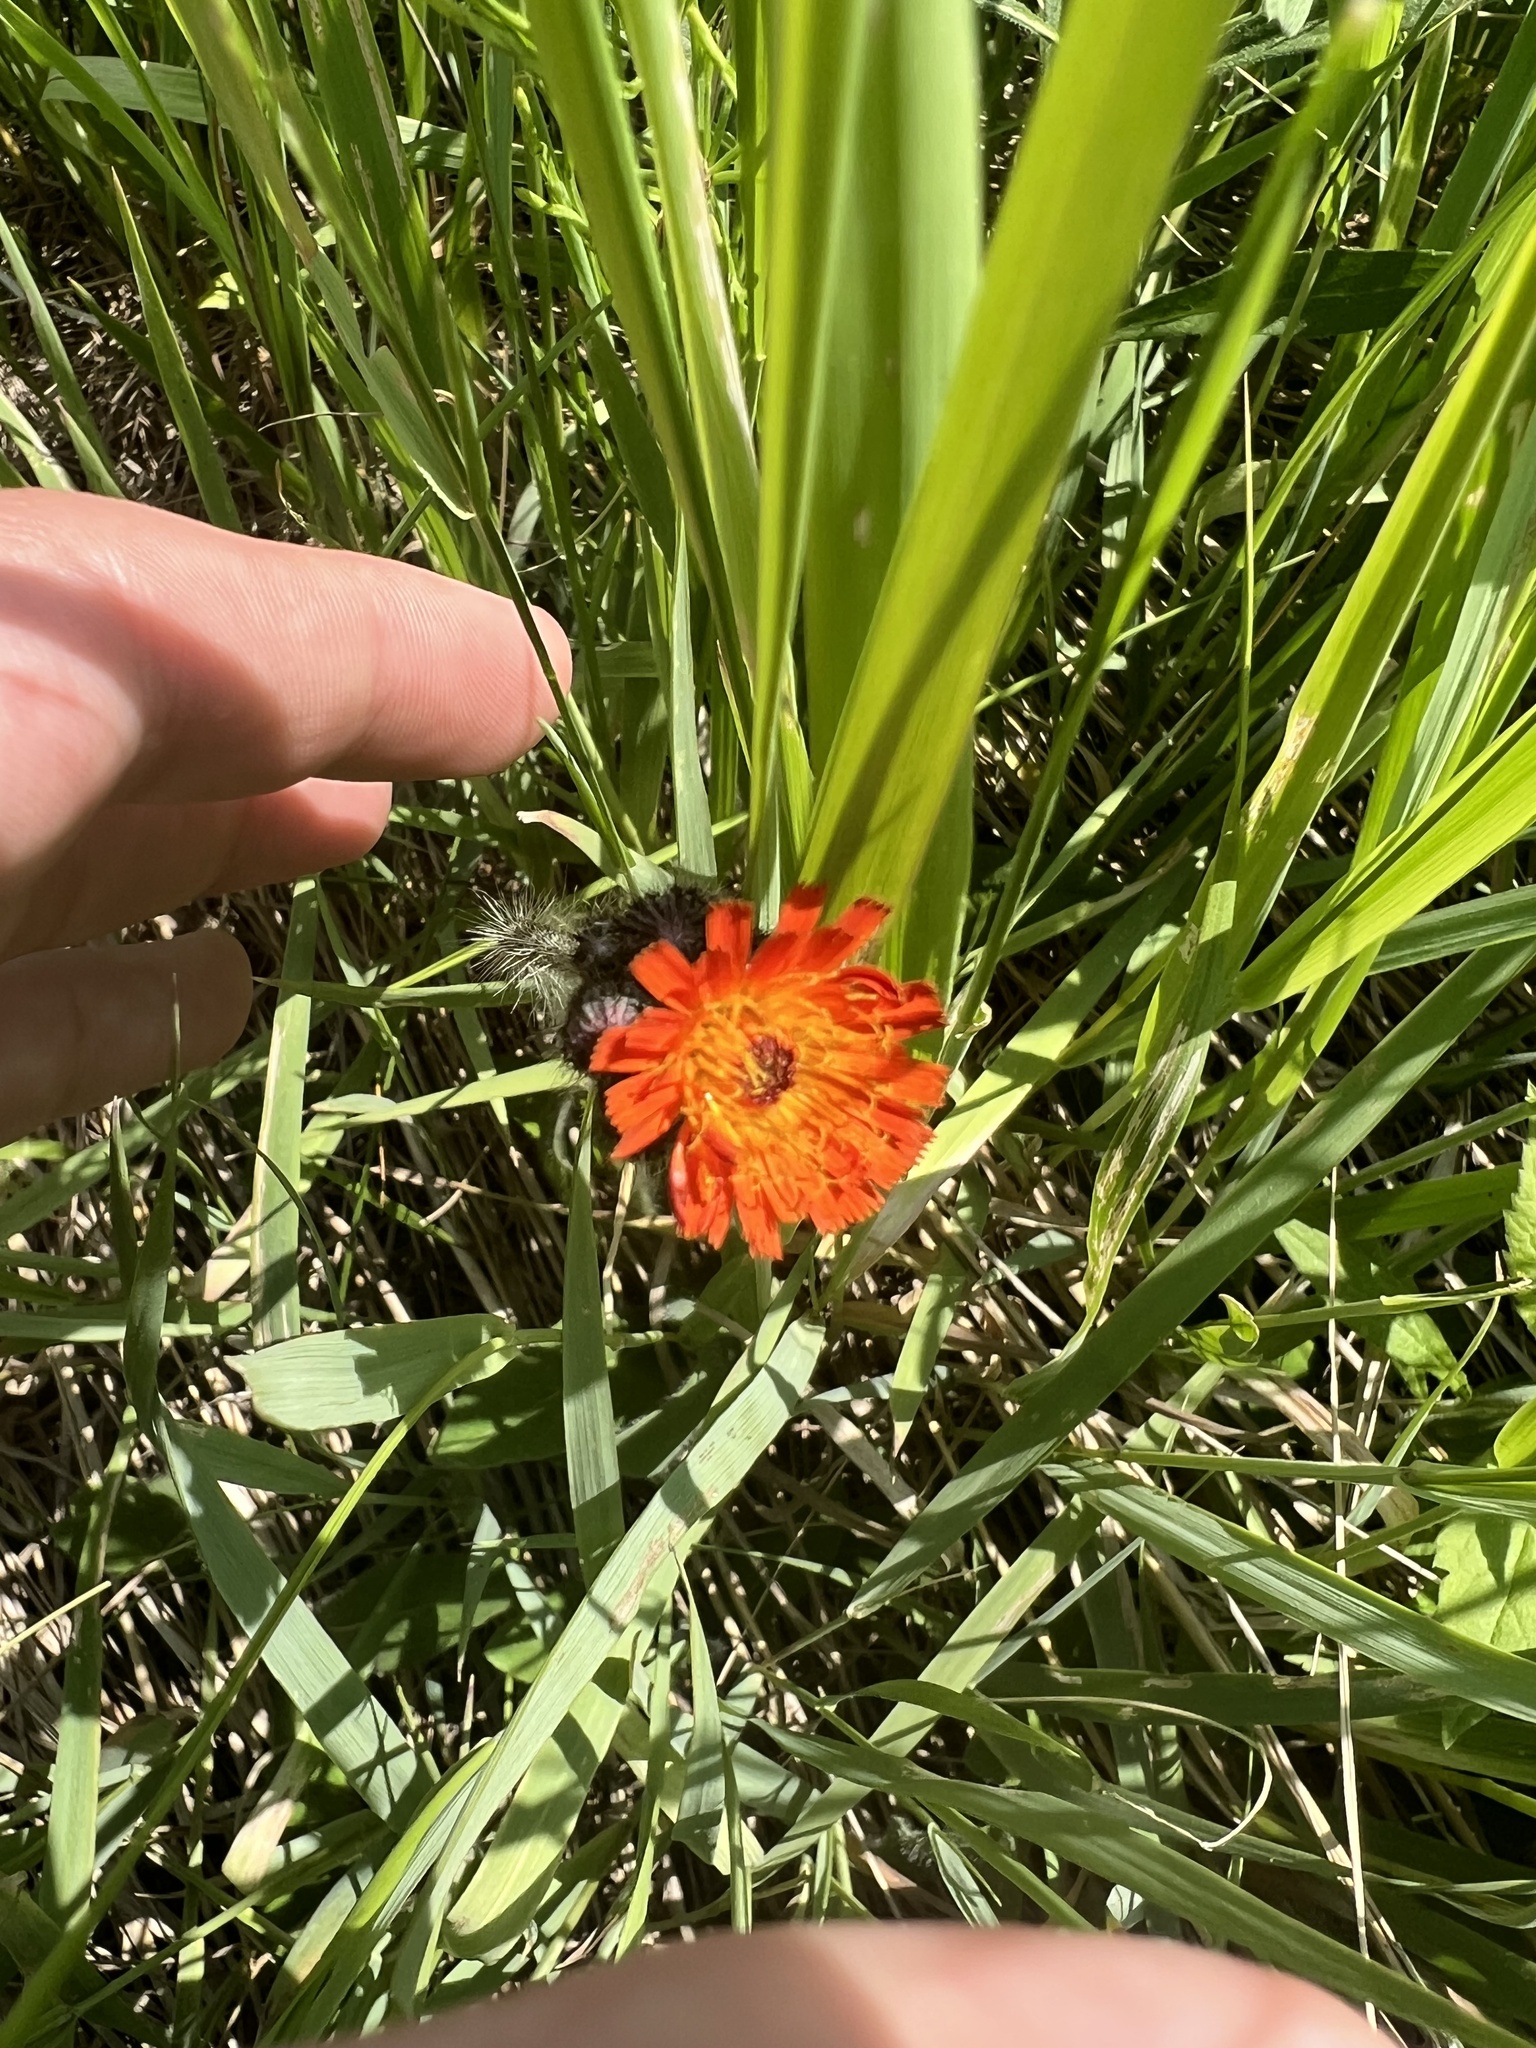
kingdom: Plantae
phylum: Tracheophyta
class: Magnoliopsida
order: Asterales
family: Asteraceae
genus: Pilosella
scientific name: Pilosella aurantiaca
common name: Fox-and-cubs
